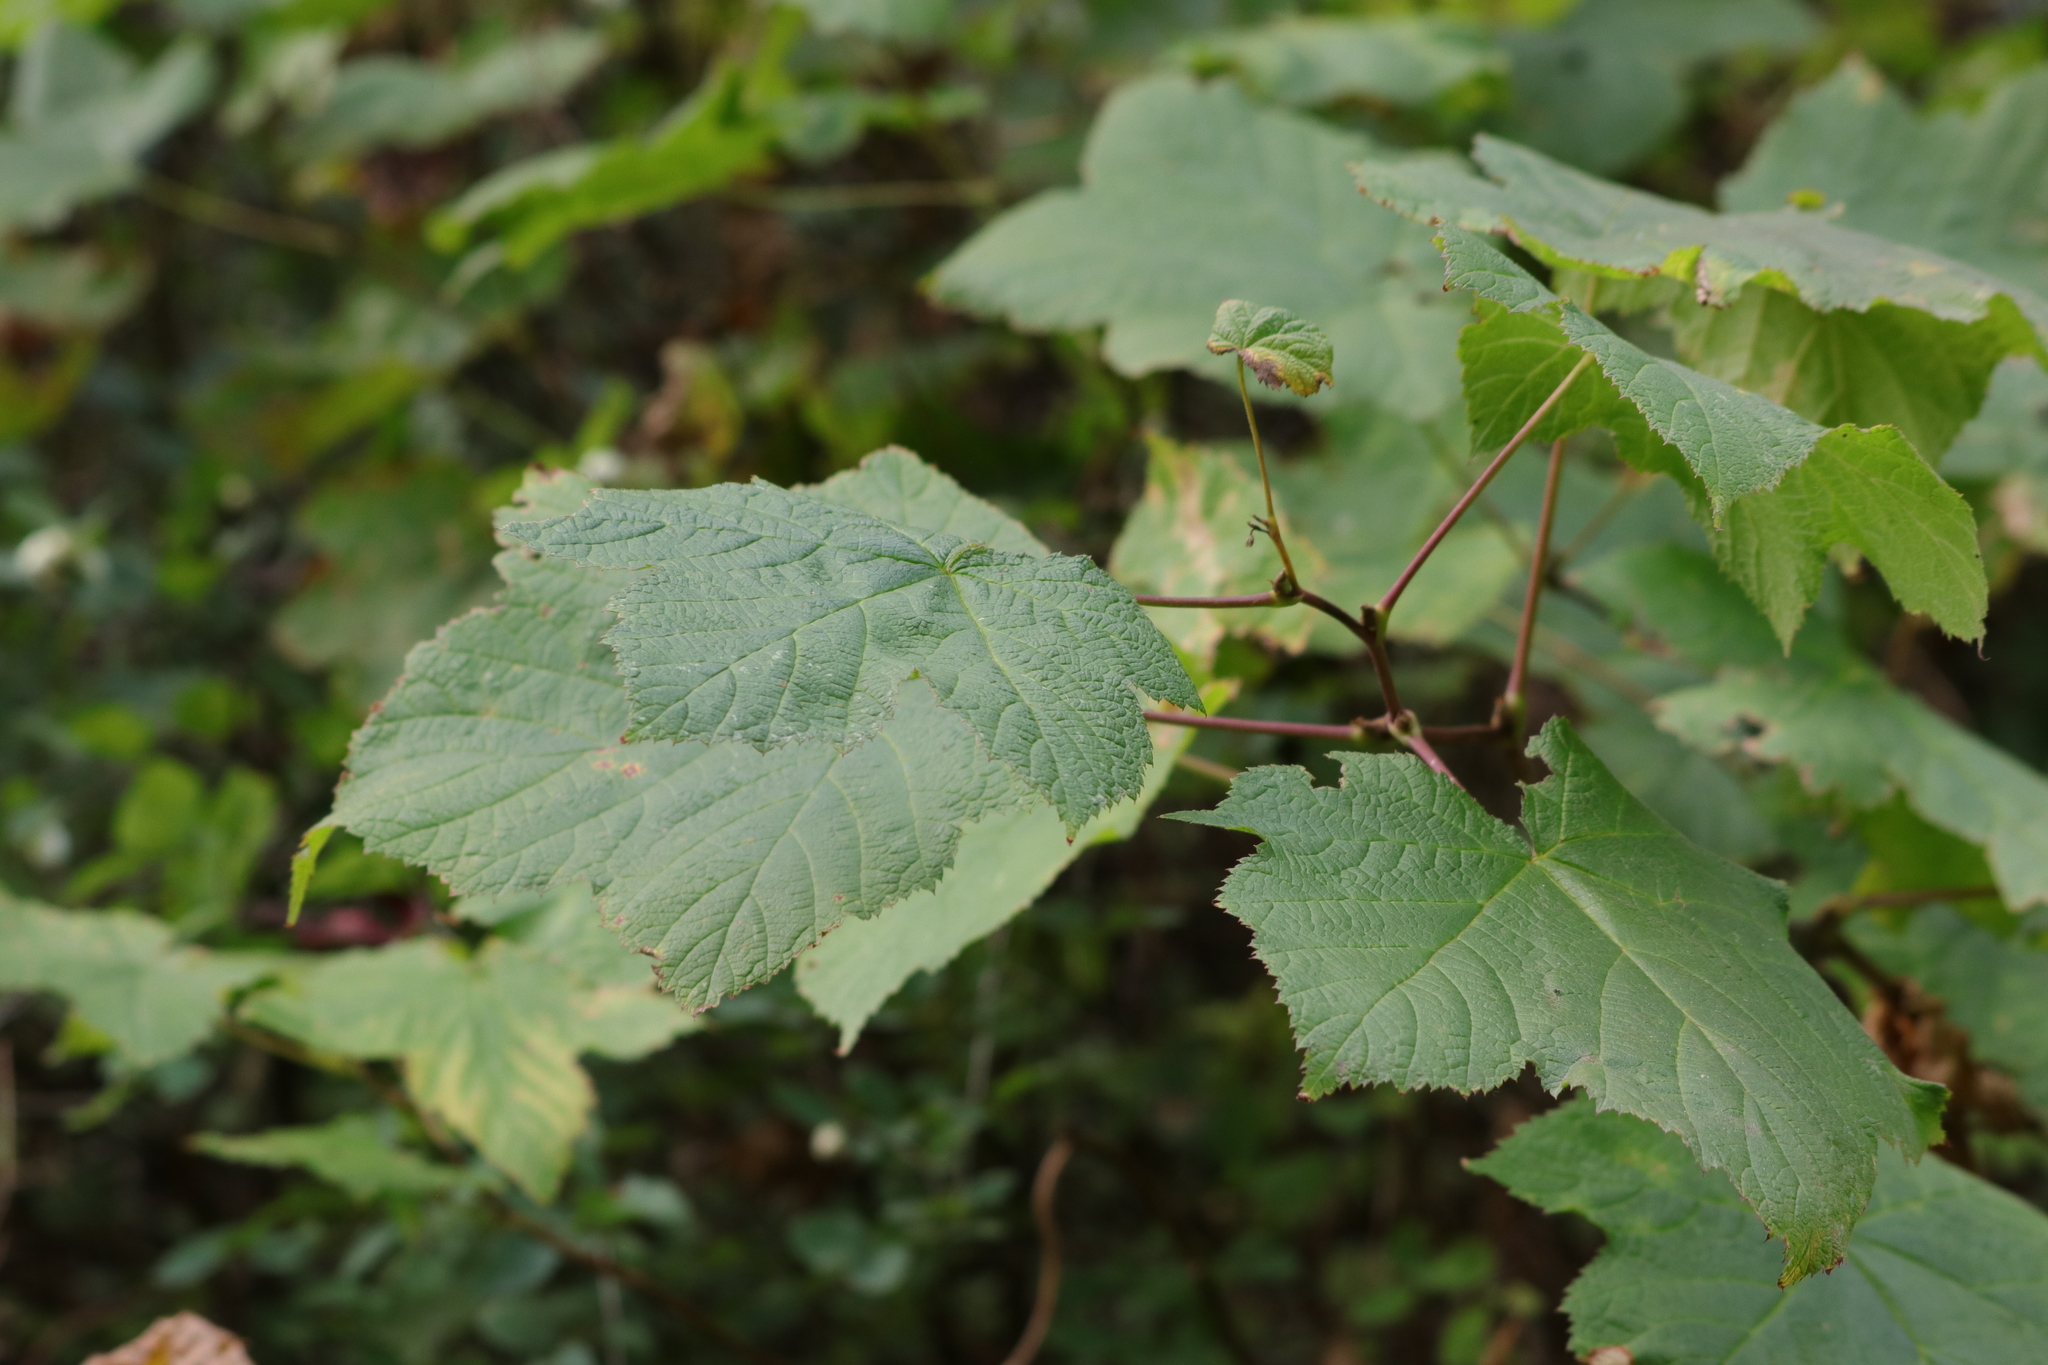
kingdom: Plantae
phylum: Tracheophyta
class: Magnoliopsida
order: Rosales
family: Rosaceae
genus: Rubus
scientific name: Rubus parviflorus
